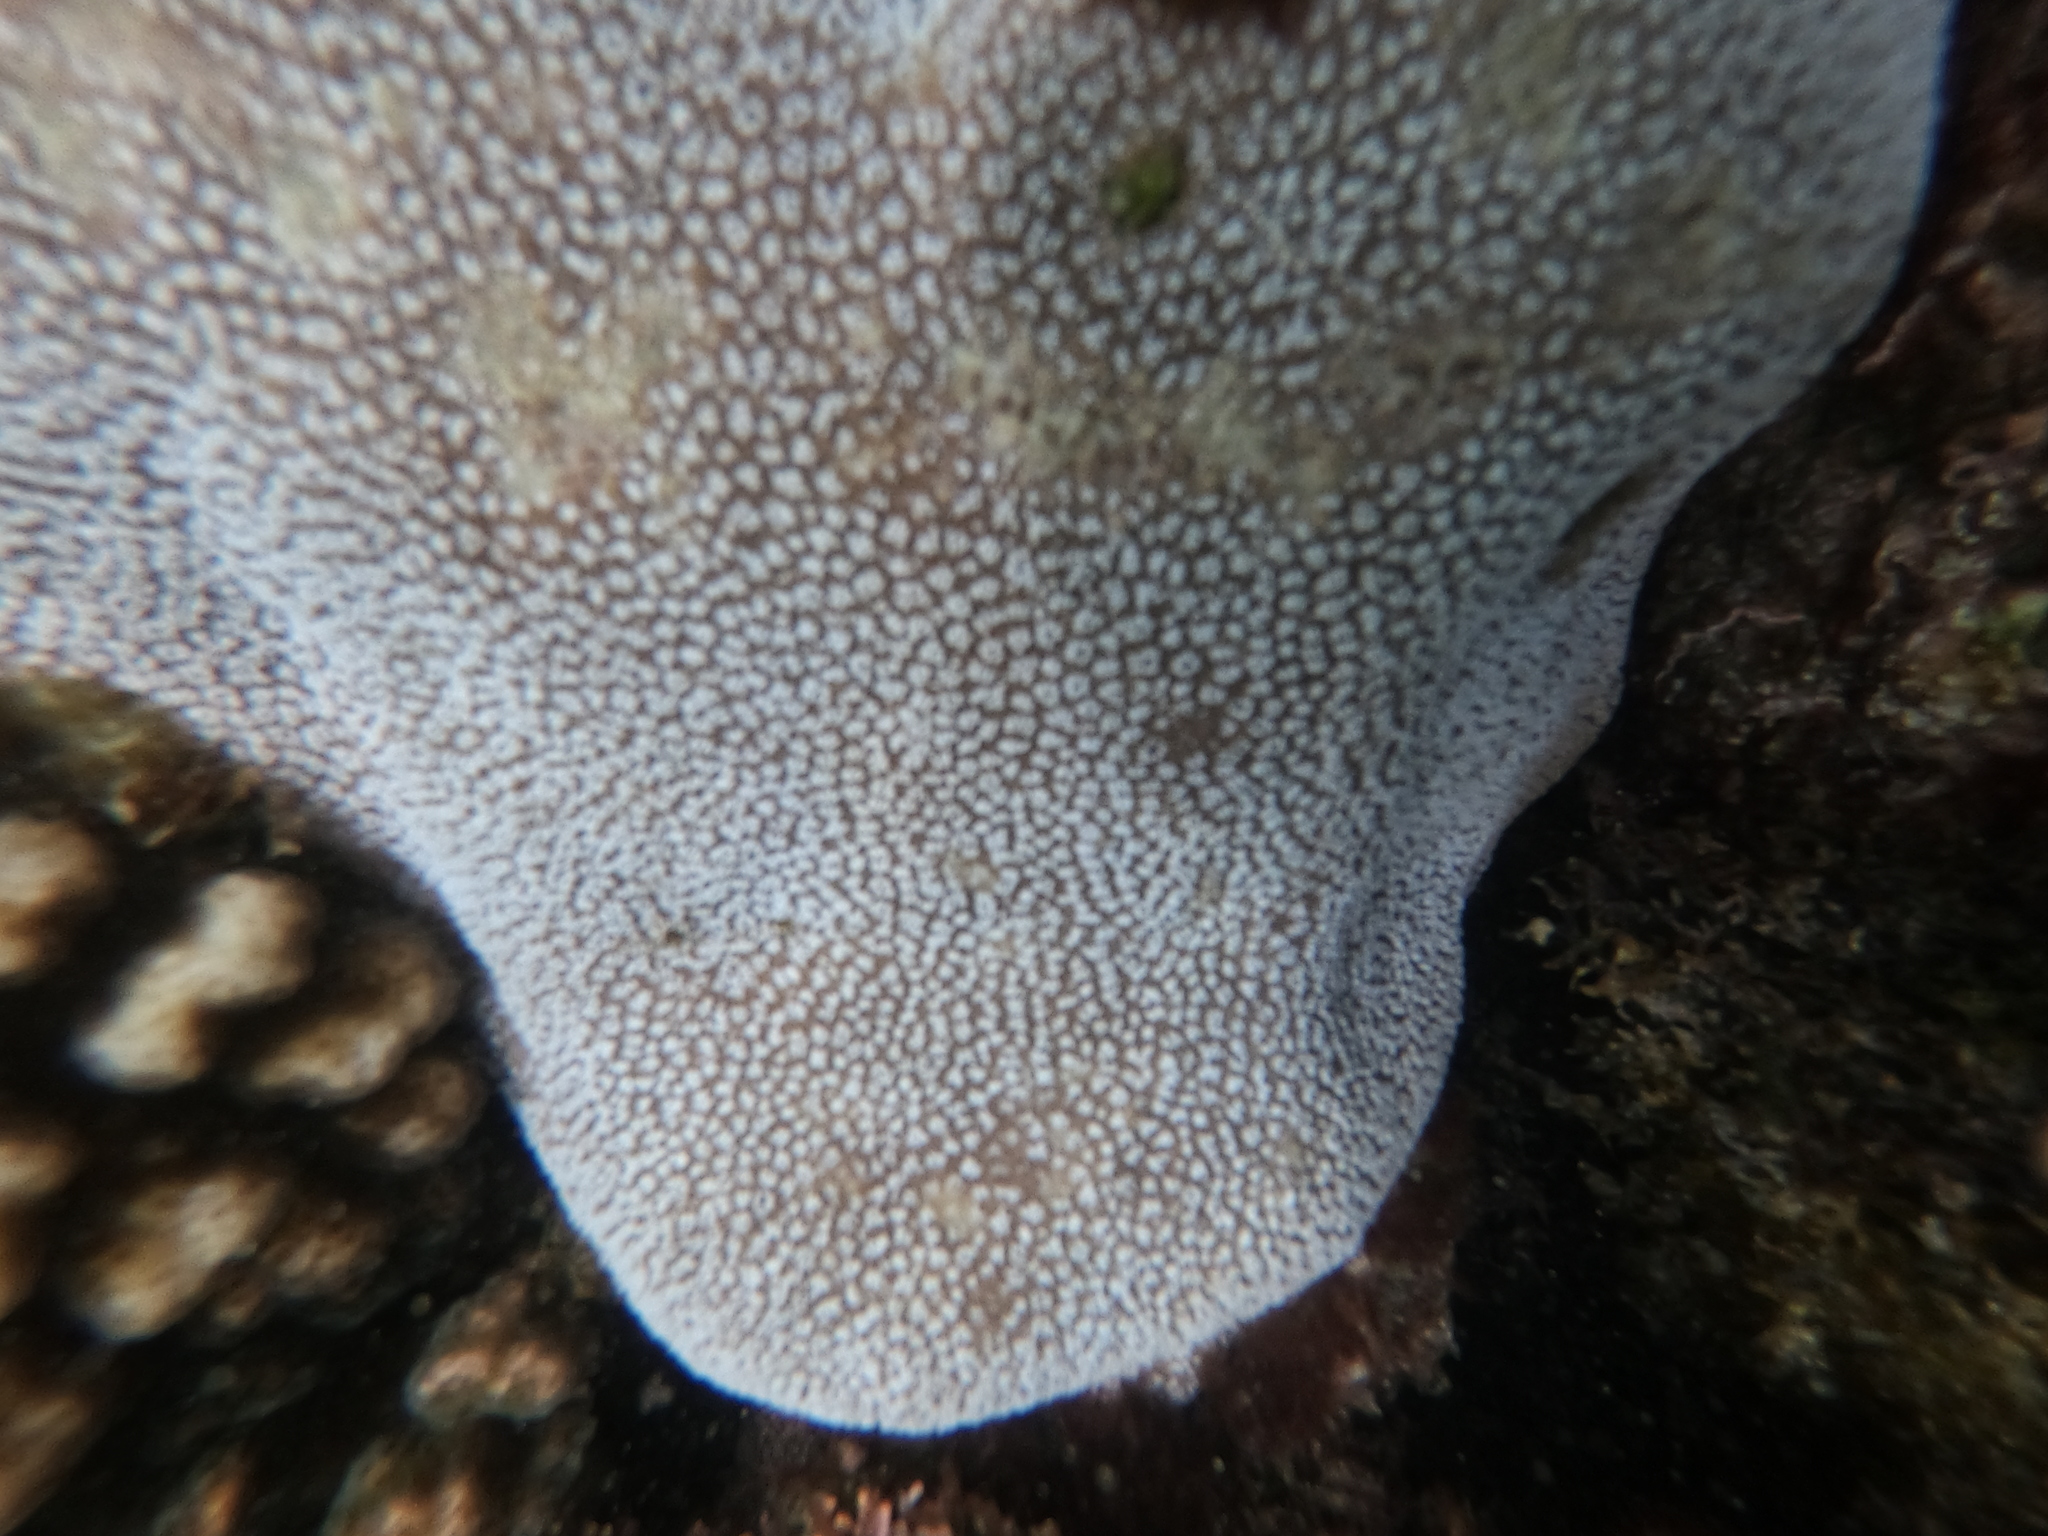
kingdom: Animalia
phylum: Cnidaria
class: Anthozoa
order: Scleractinia
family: Agariciidae
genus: Pavona
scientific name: Pavona gigantea
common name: Leaf coral
